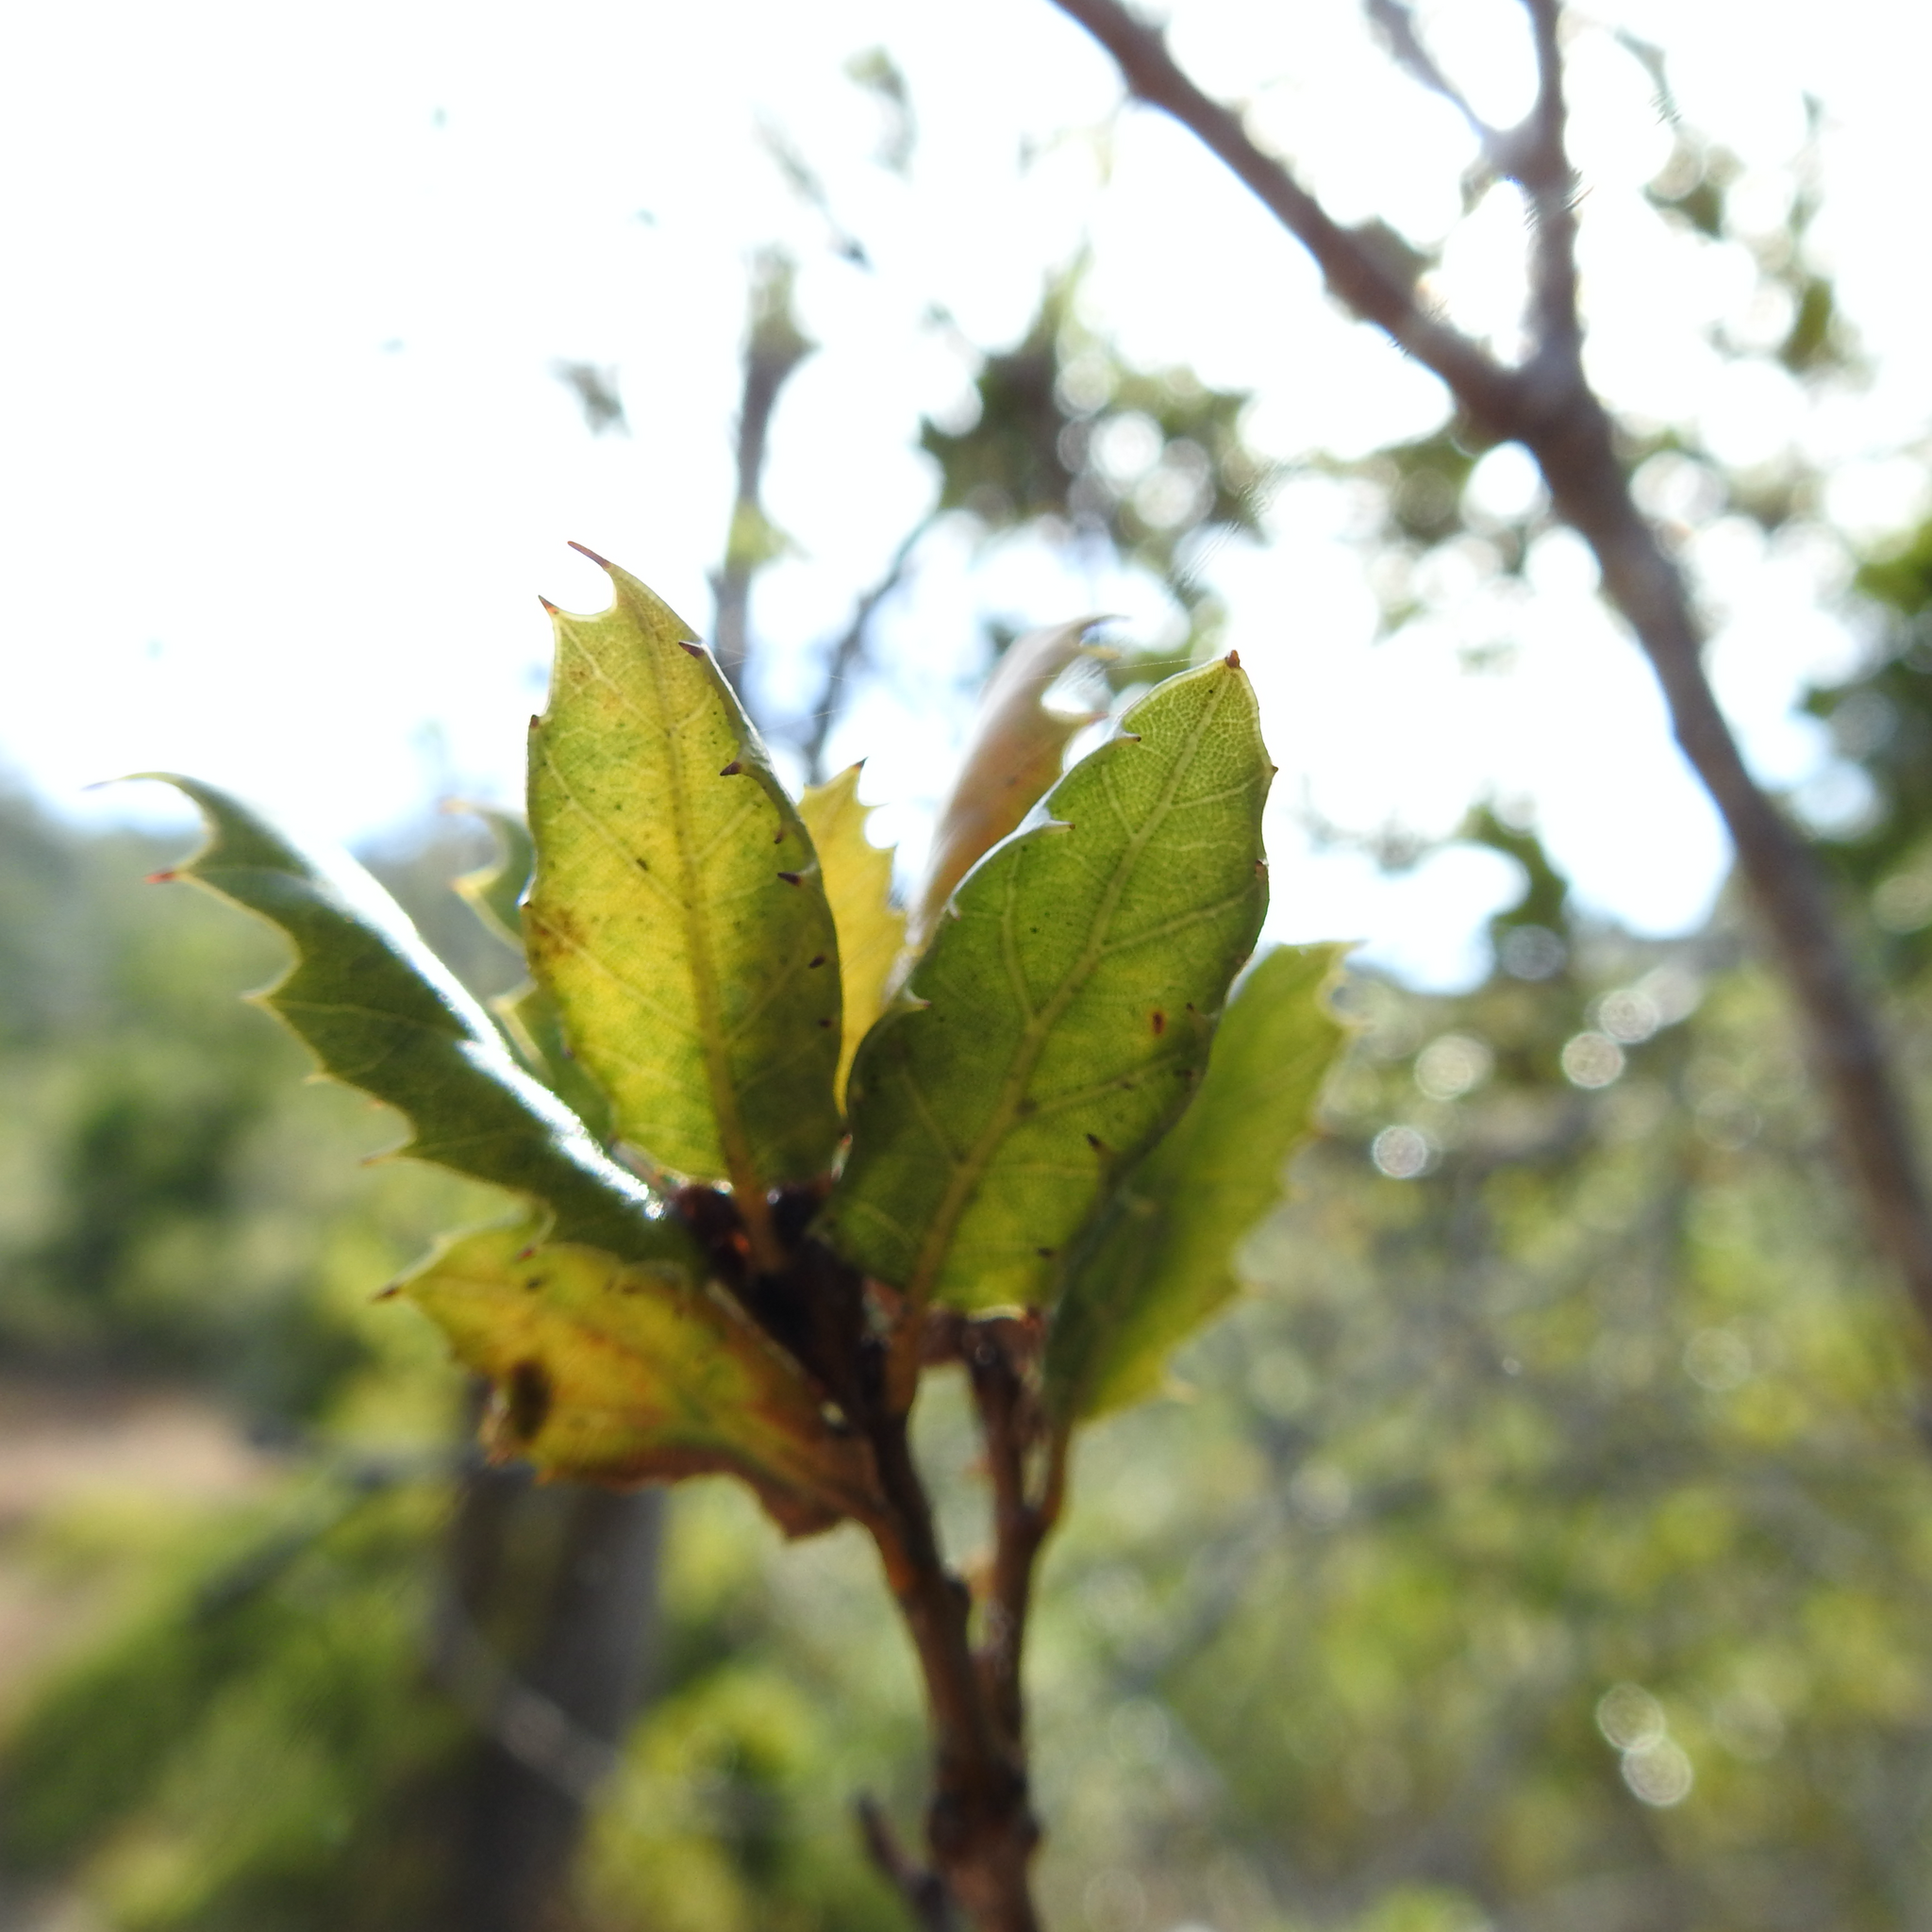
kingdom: Plantae
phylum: Tracheophyta
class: Magnoliopsida
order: Fagales
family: Fagaceae
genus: Quercus
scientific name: Quercus agrifolia
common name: California live oak
